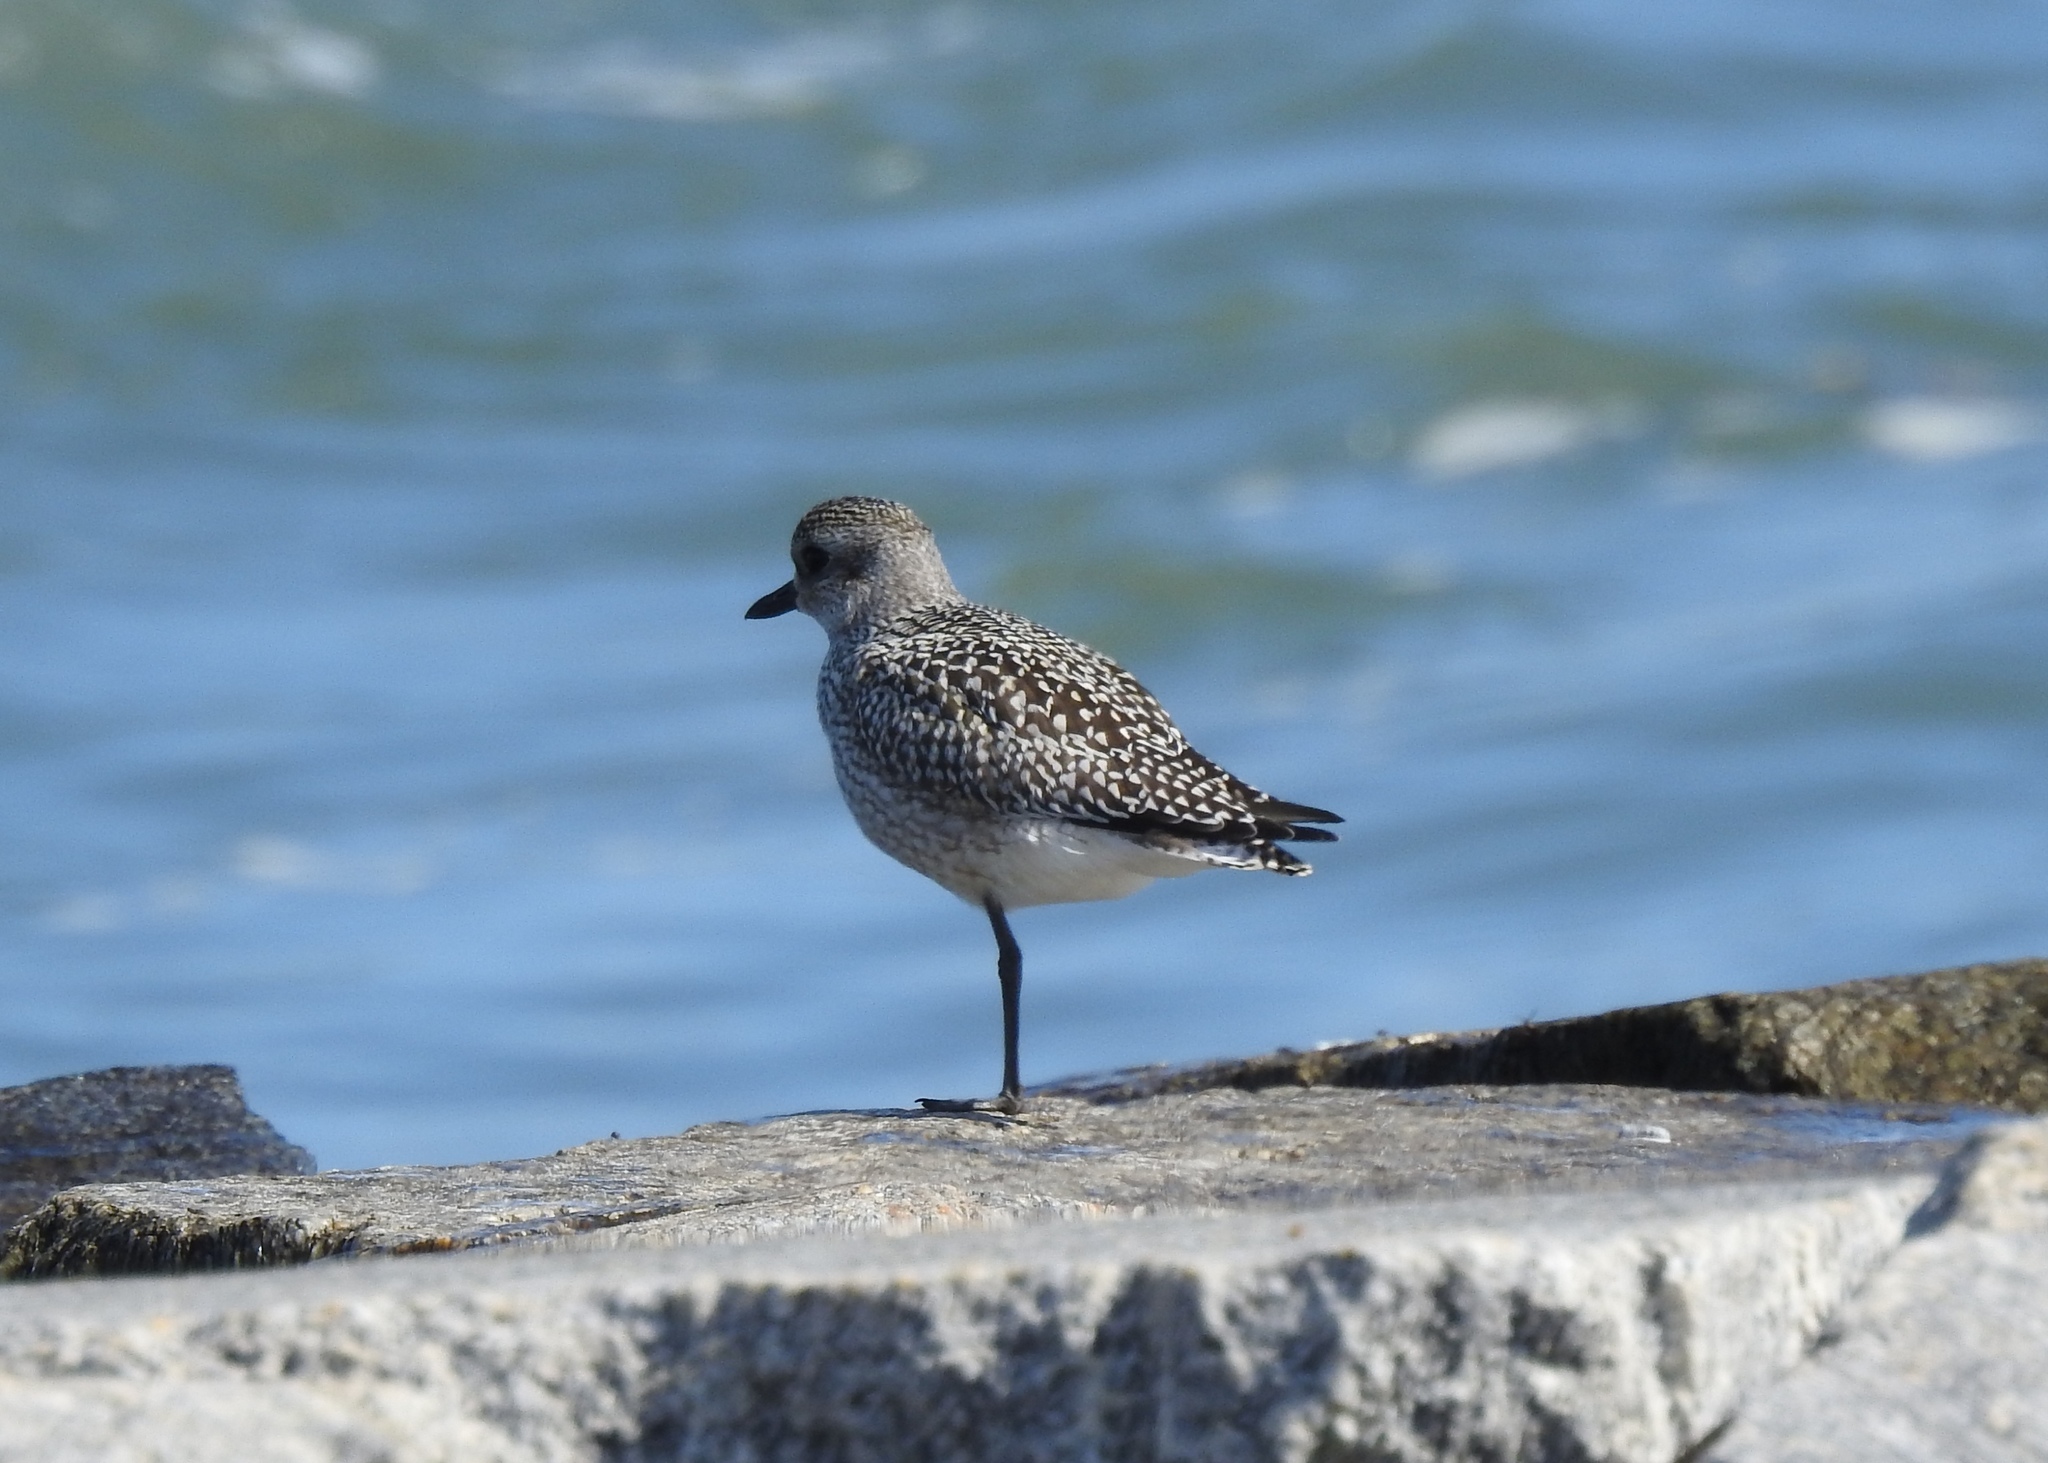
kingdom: Animalia
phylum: Chordata
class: Aves
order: Charadriiformes
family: Charadriidae
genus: Pluvialis
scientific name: Pluvialis squatarola
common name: Grey plover
